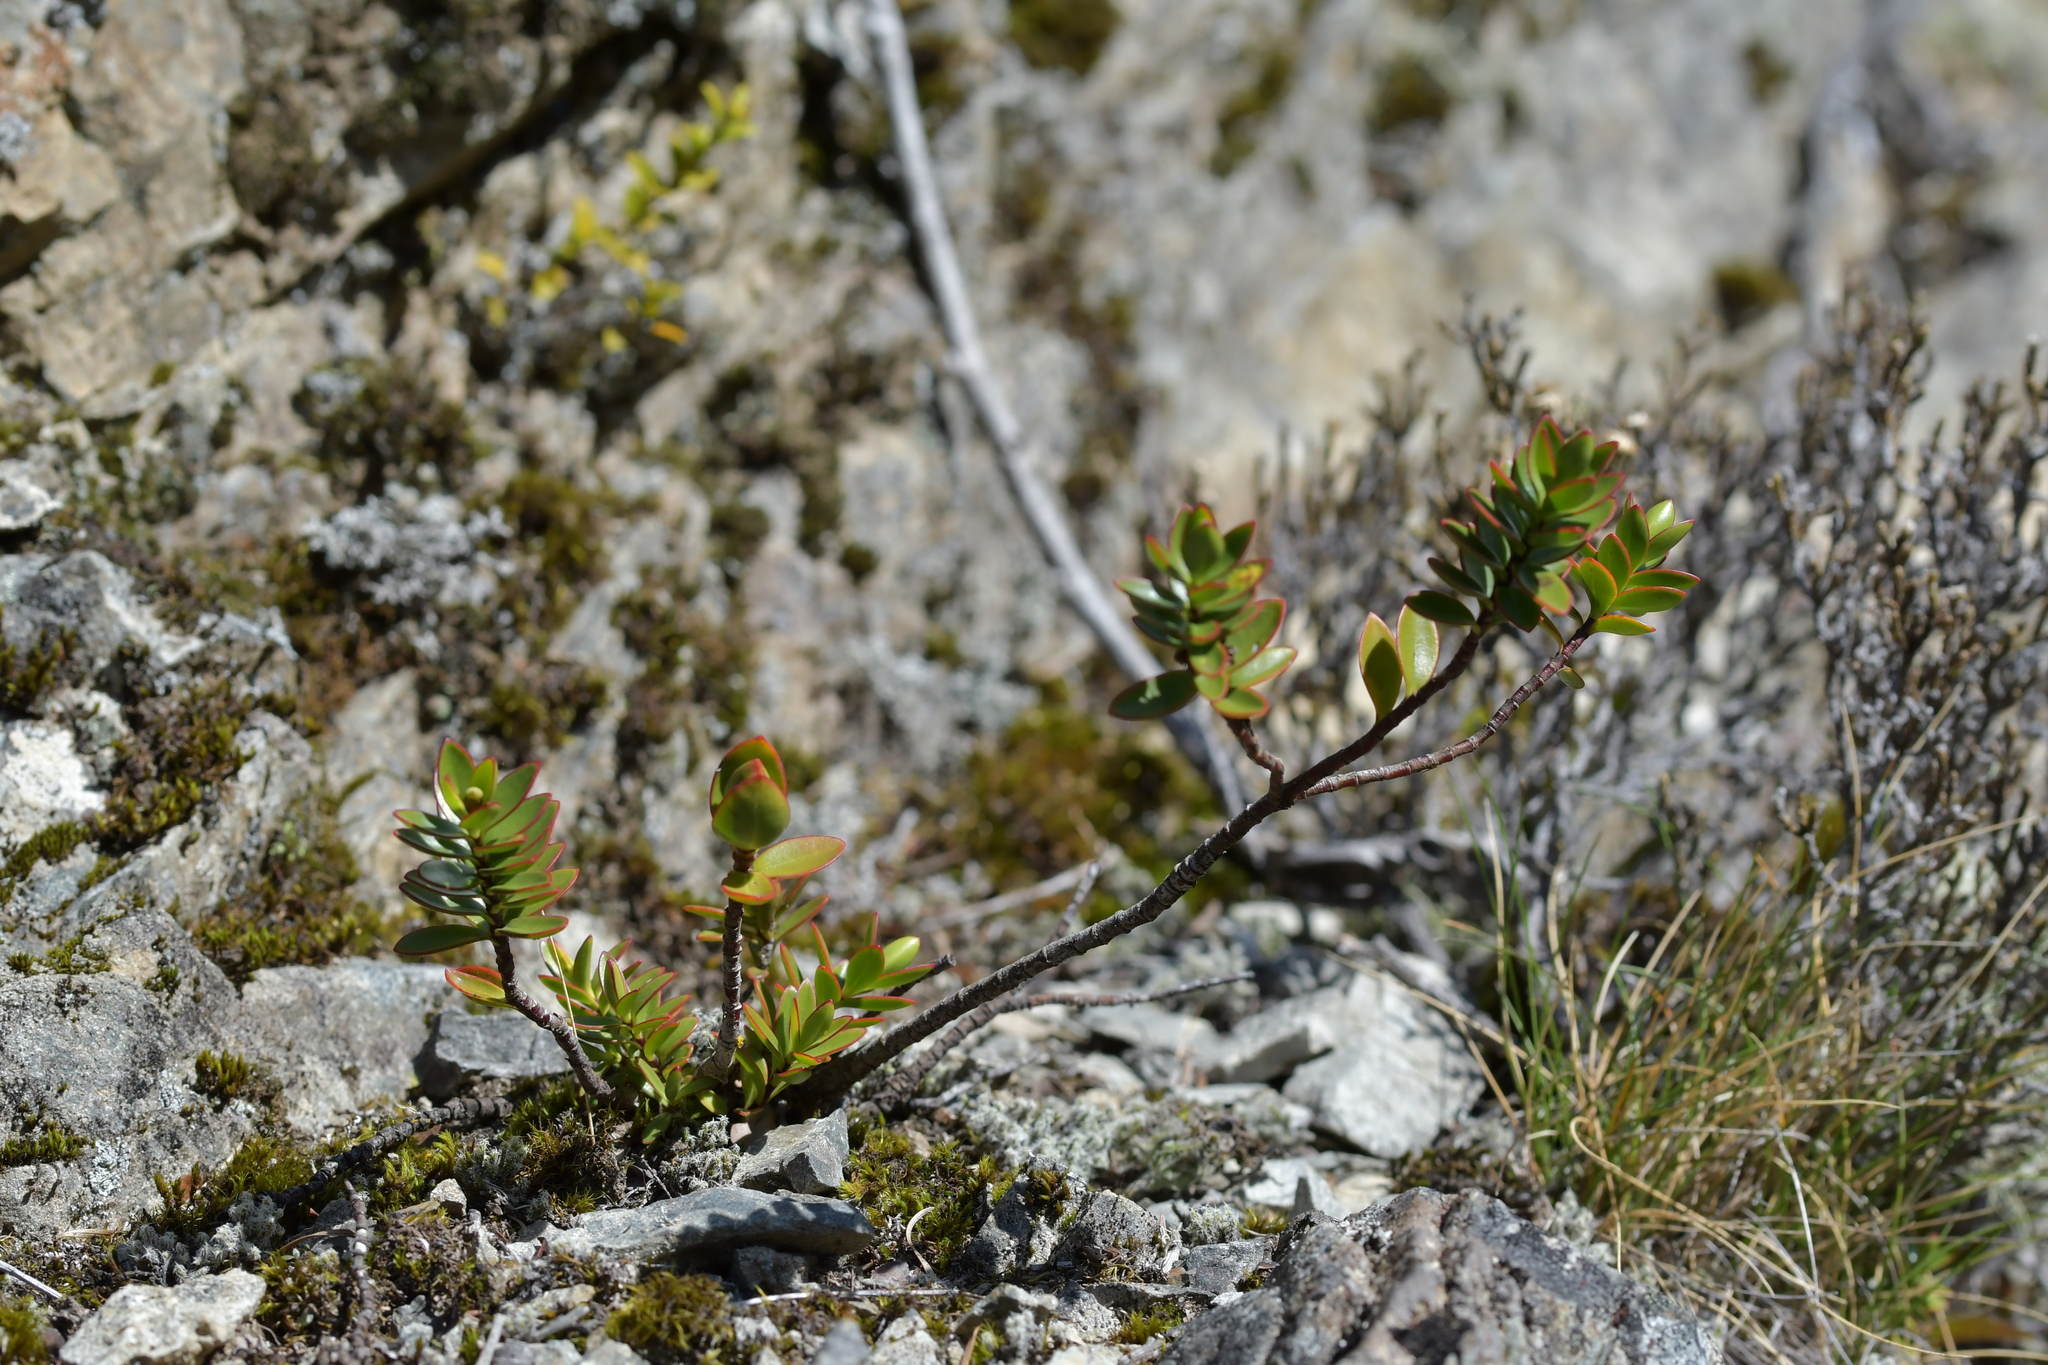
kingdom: Plantae
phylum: Tracheophyta
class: Magnoliopsida
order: Lamiales
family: Plantaginaceae
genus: Veronica
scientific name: Veronica decumbens
